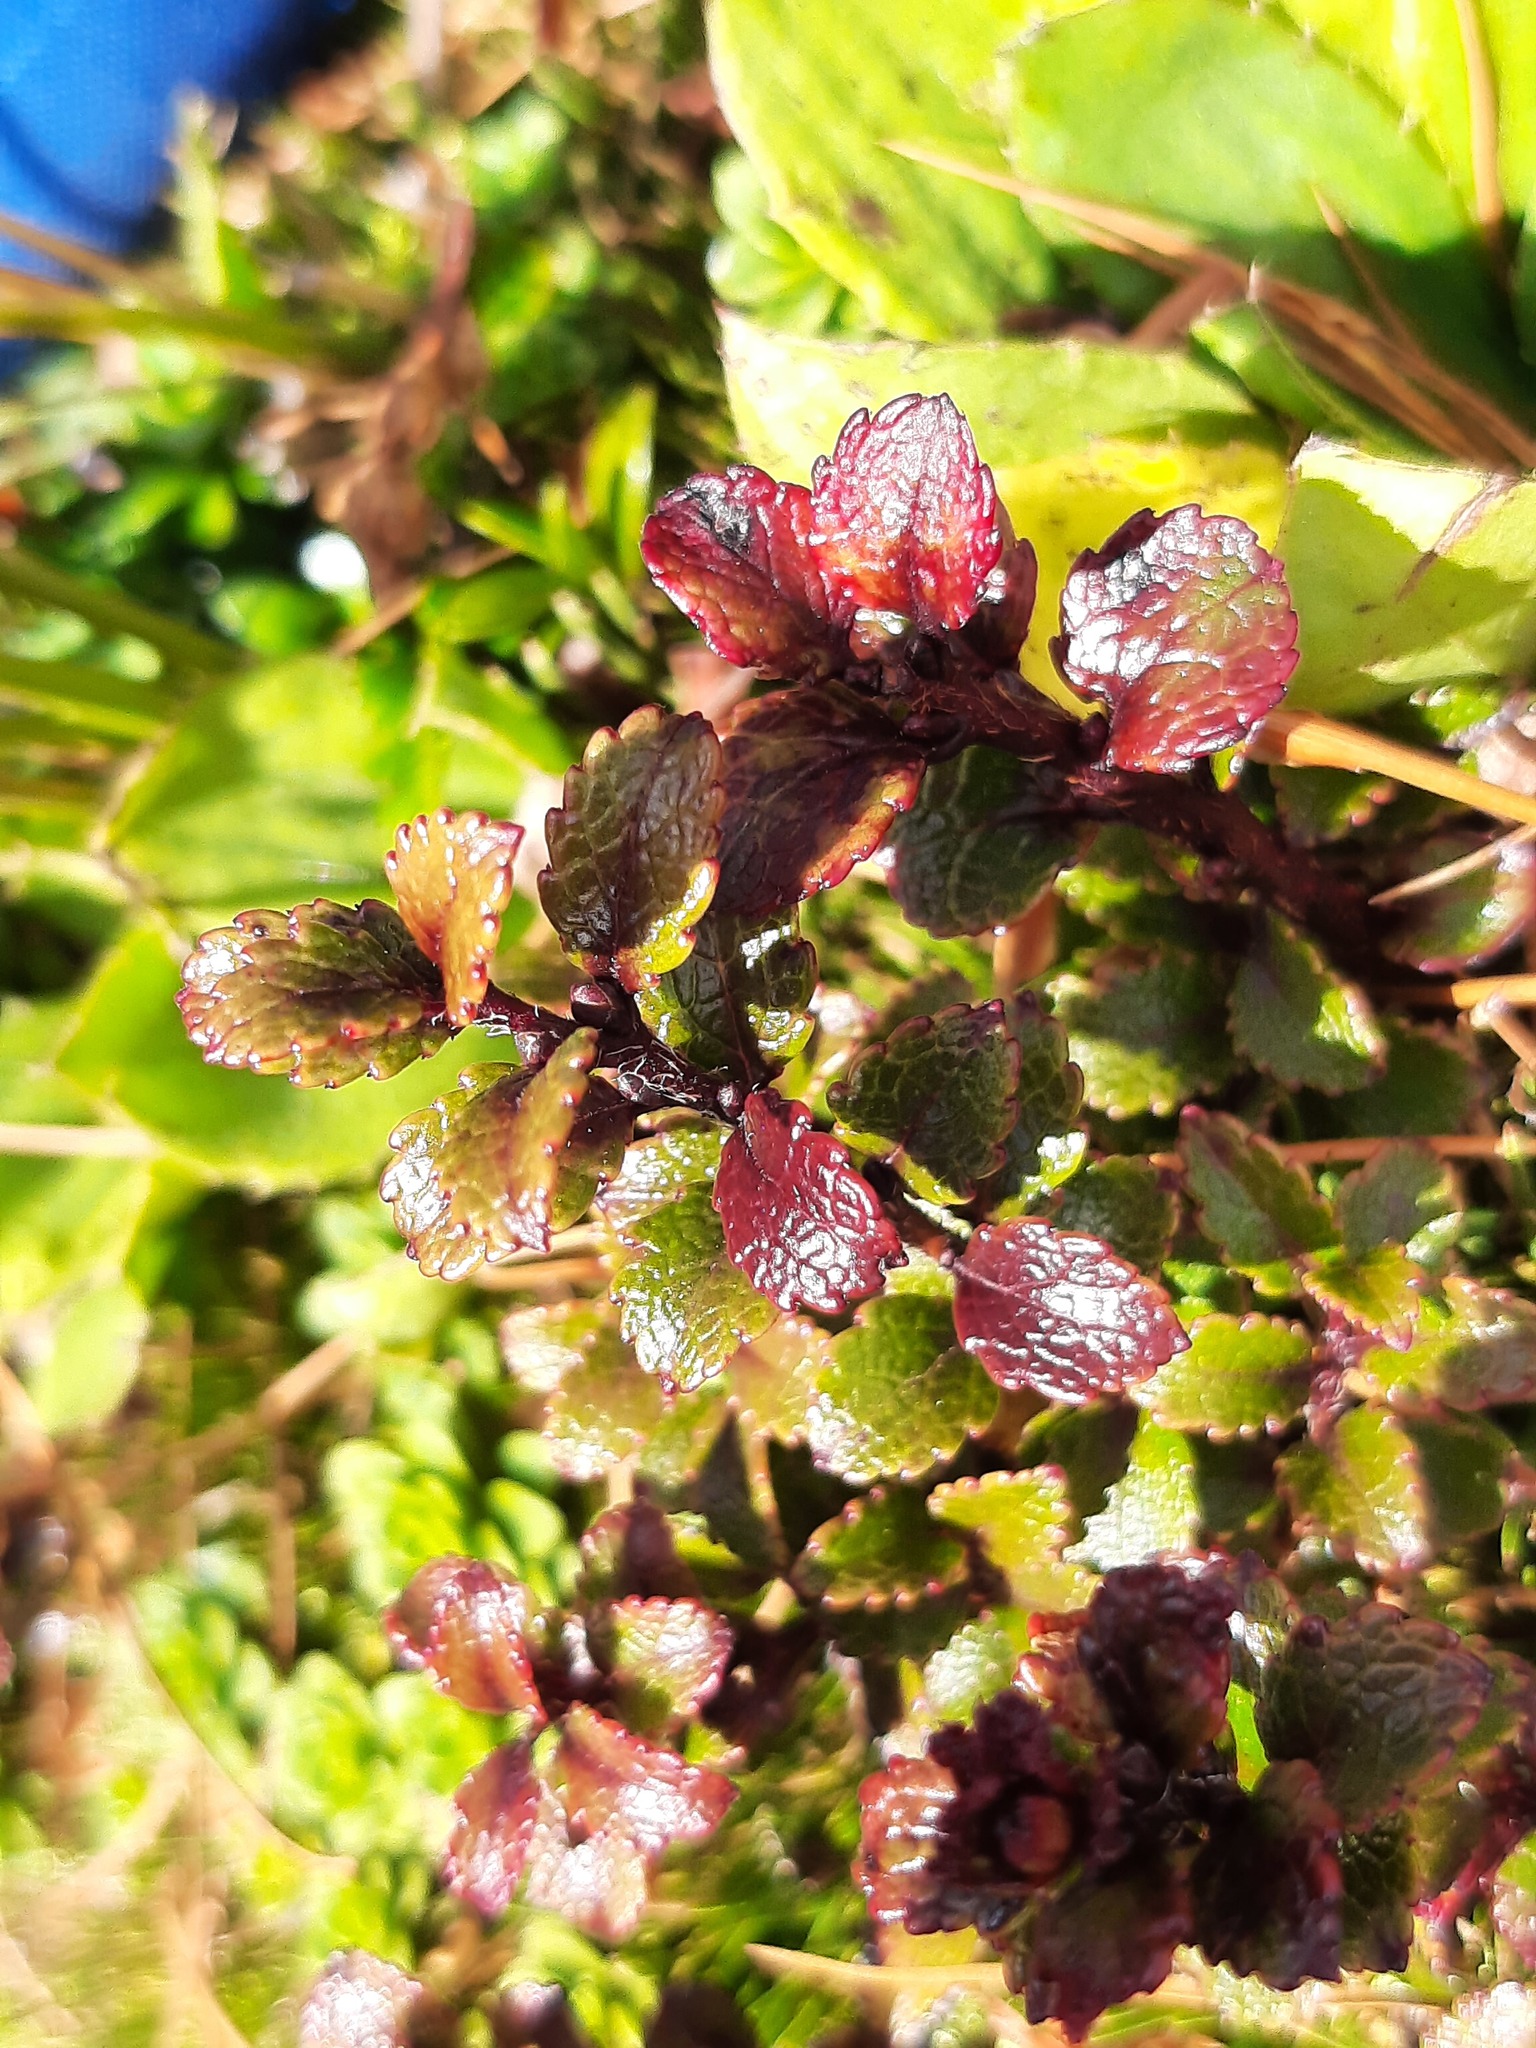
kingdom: Plantae
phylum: Tracheophyta
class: Magnoliopsida
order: Ericales
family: Ericaceae
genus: Gaultheria
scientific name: Gaultheria depressa
